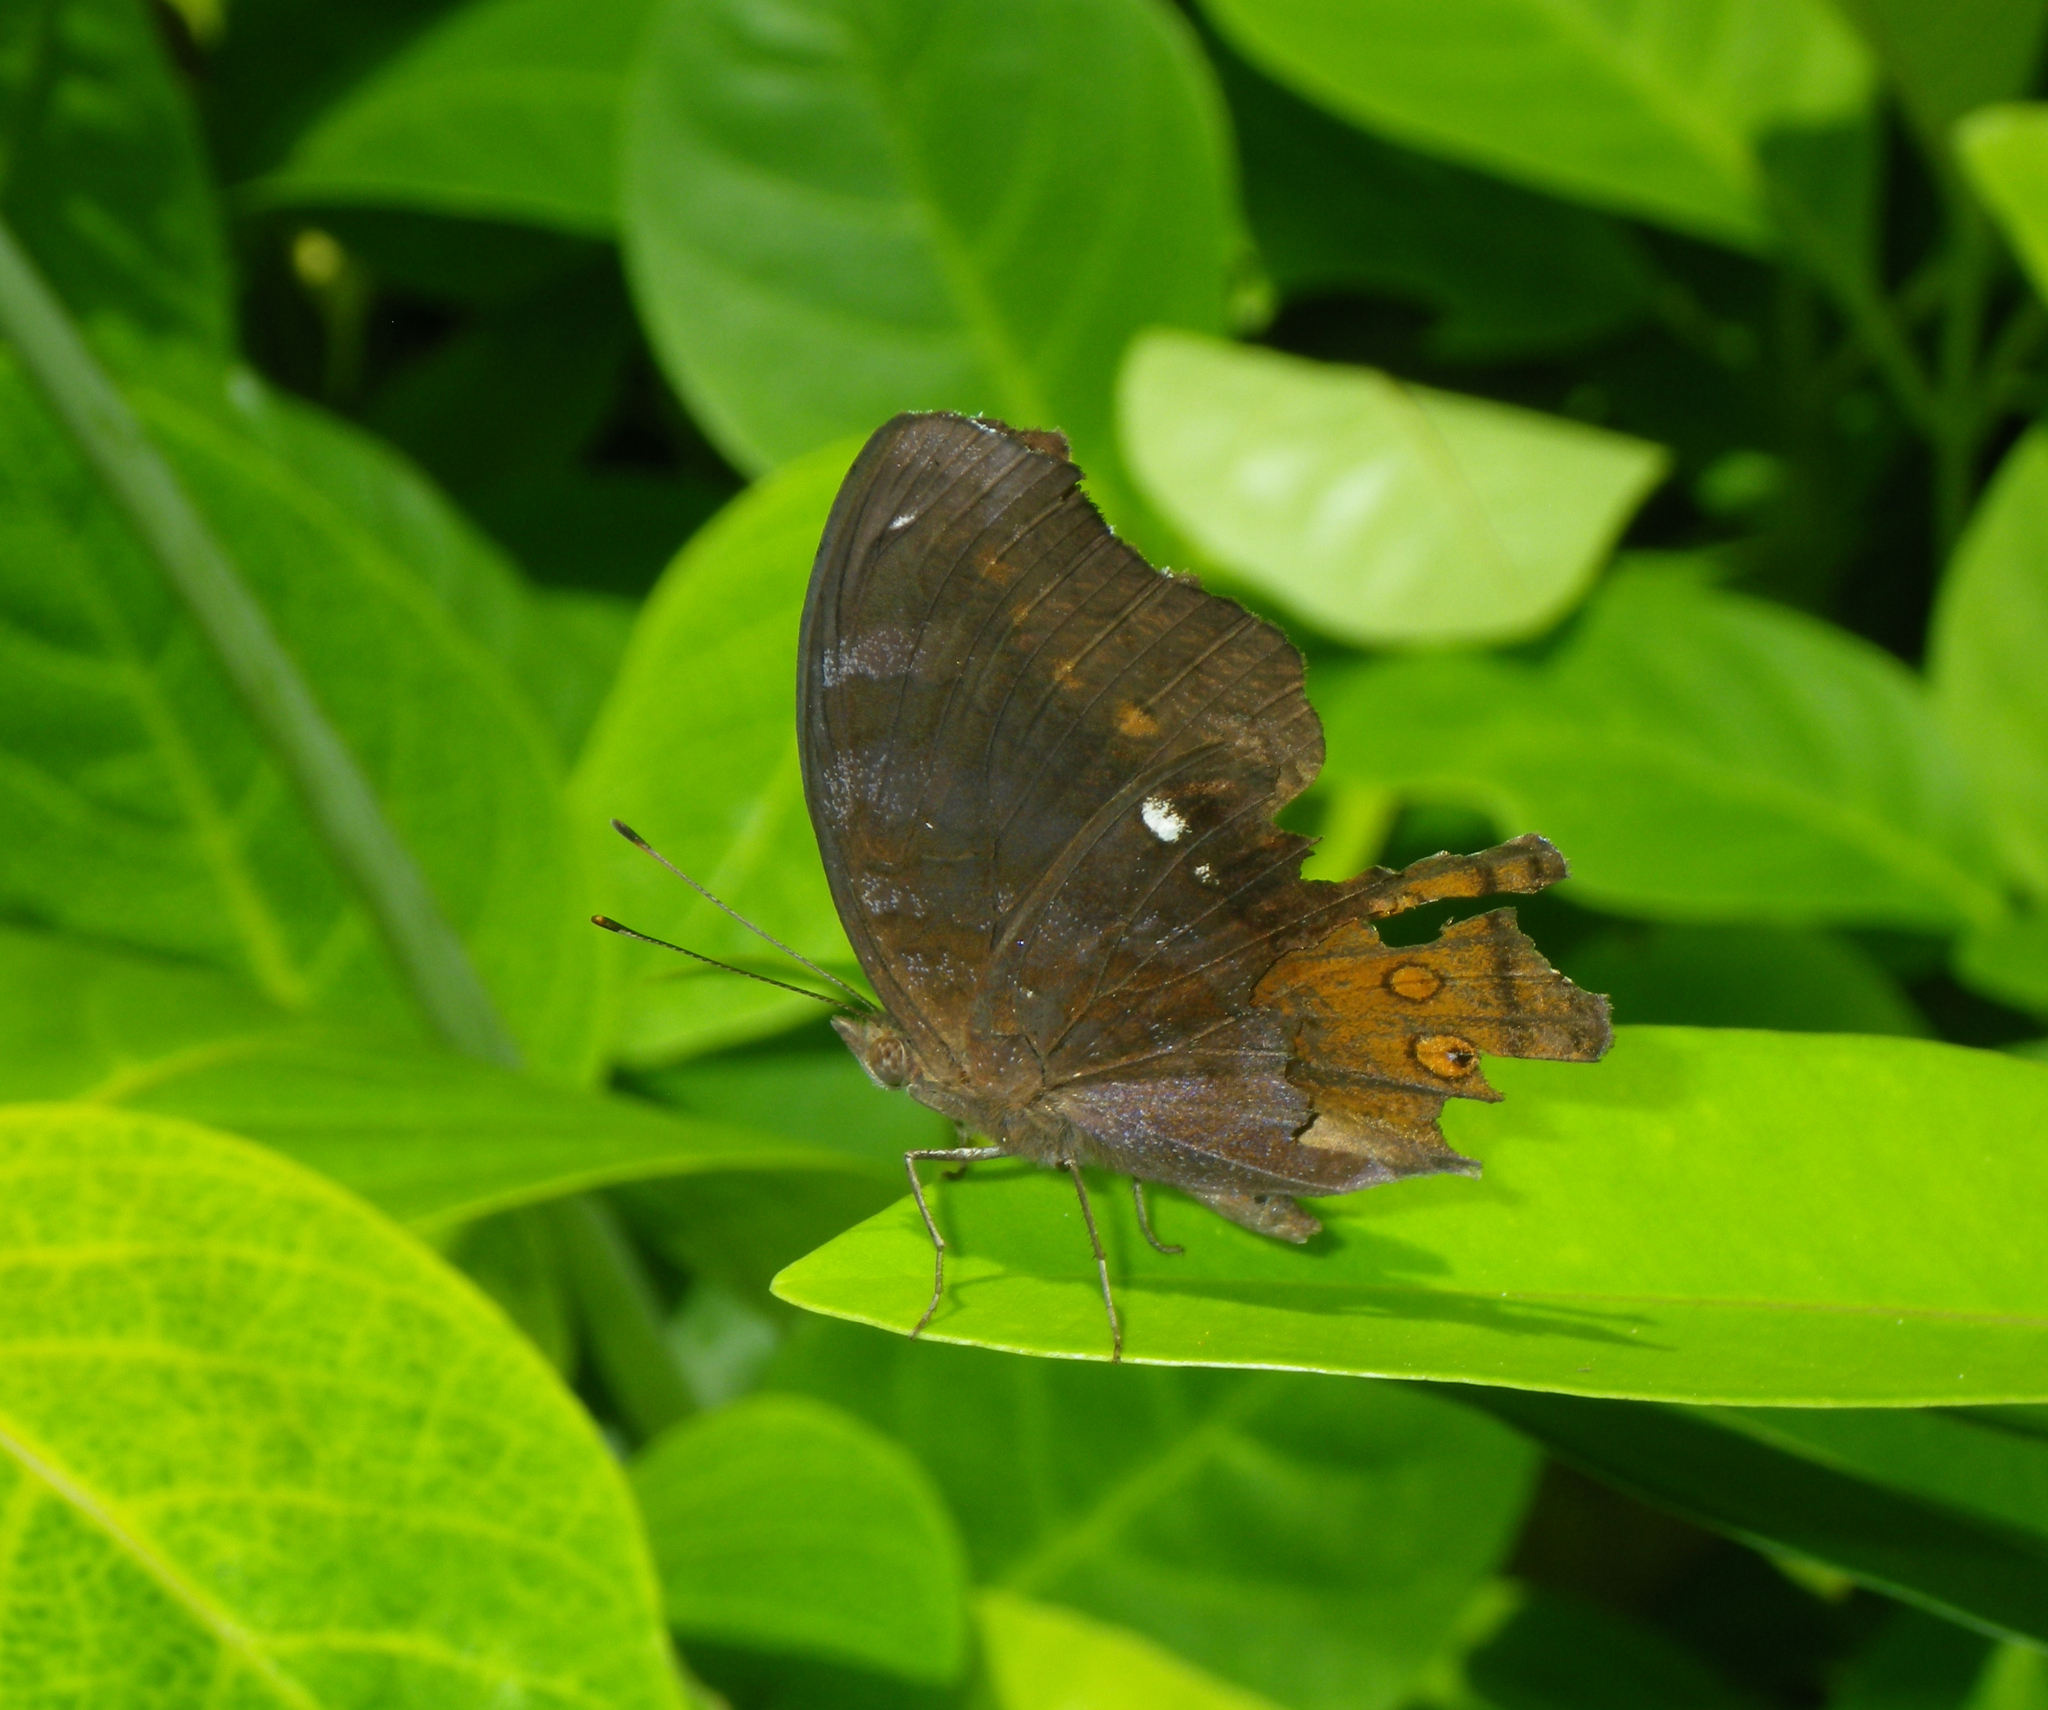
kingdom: Animalia
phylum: Arthropoda
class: Insecta
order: Lepidoptera
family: Nymphalidae
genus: Junonia
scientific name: Junonia hedonia
